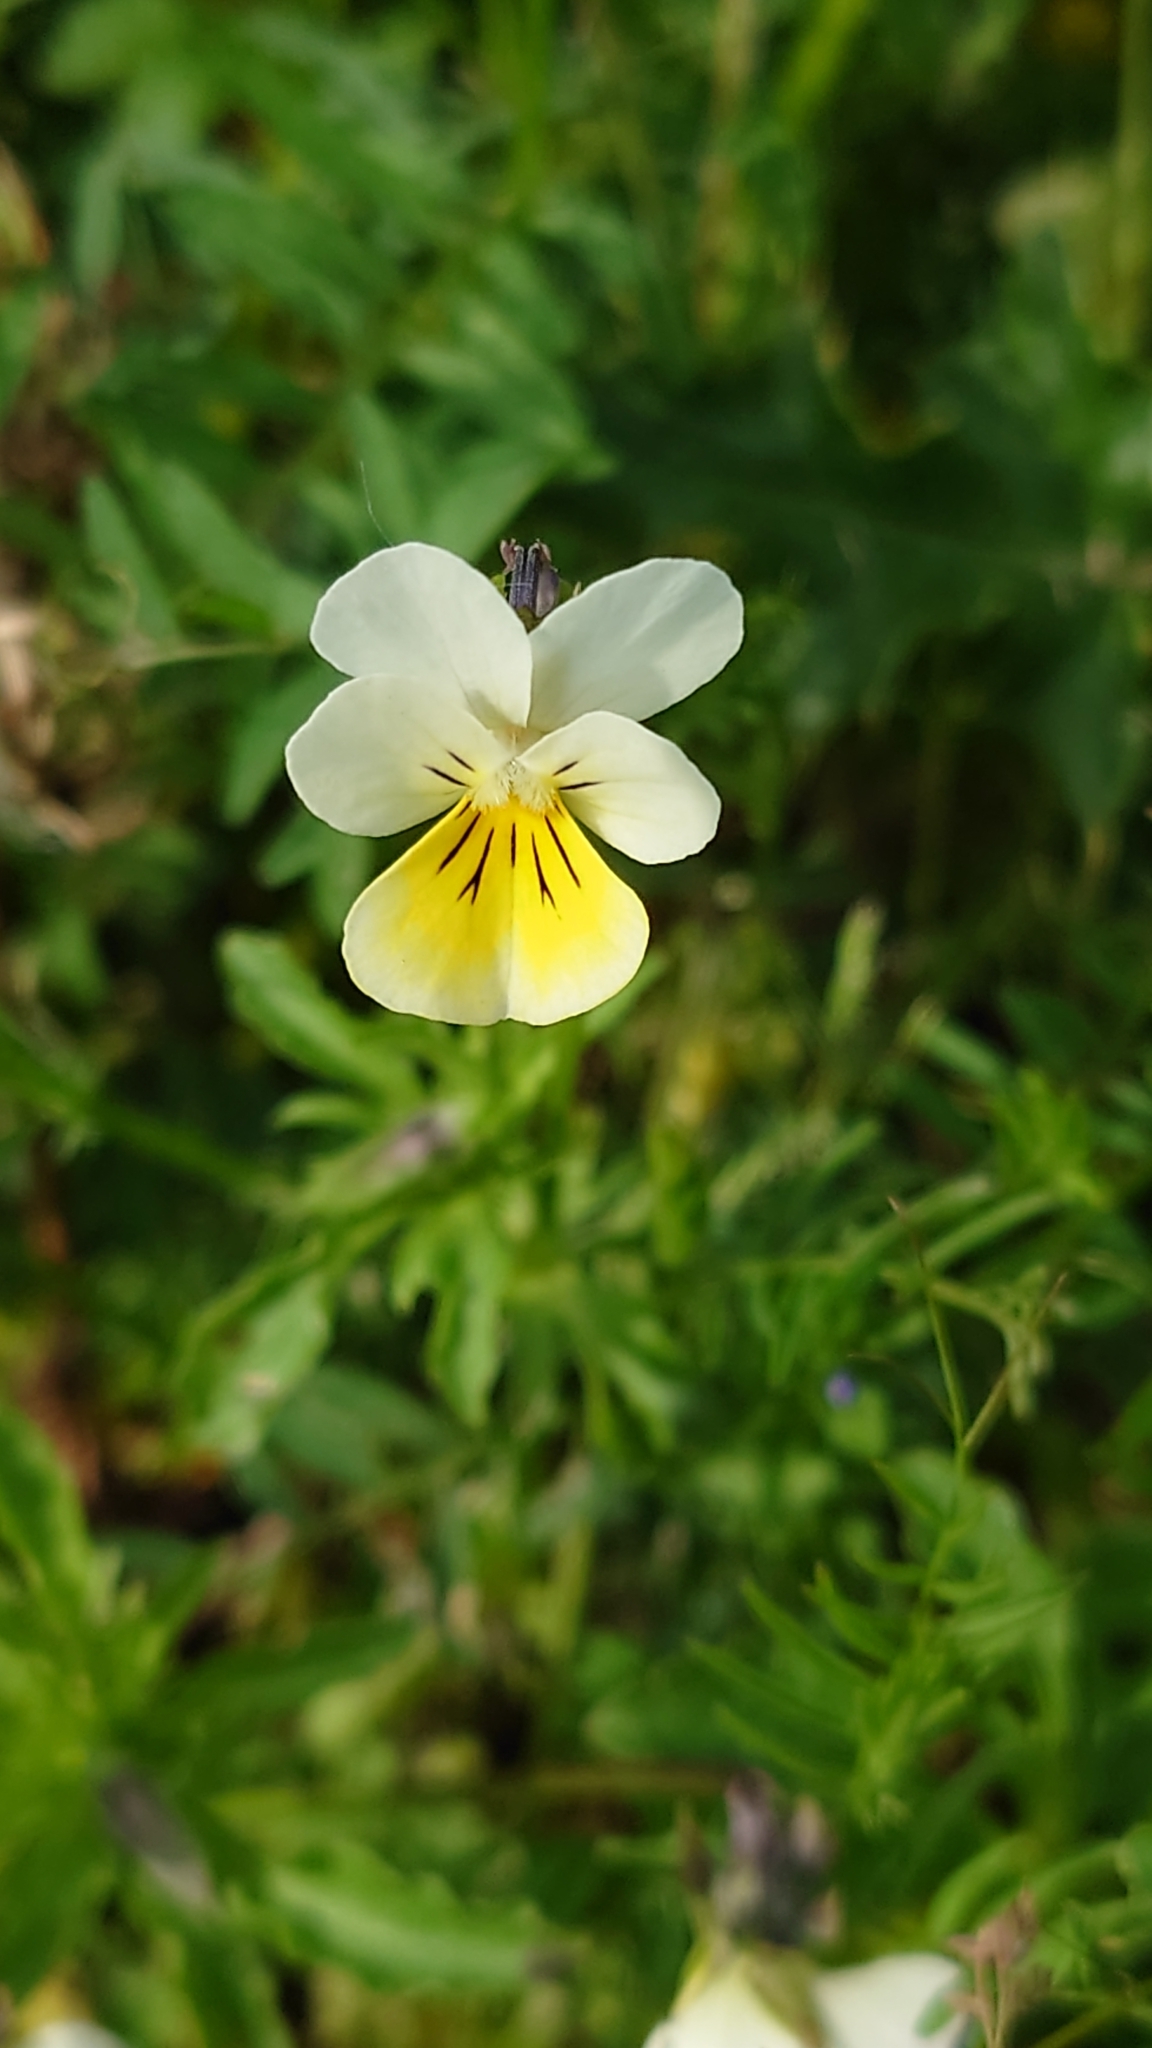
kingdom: Plantae
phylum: Tracheophyta
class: Magnoliopsida
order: Malpighiales
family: Violaceae
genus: Viola
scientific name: Viola arvensis
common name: Field pansy
